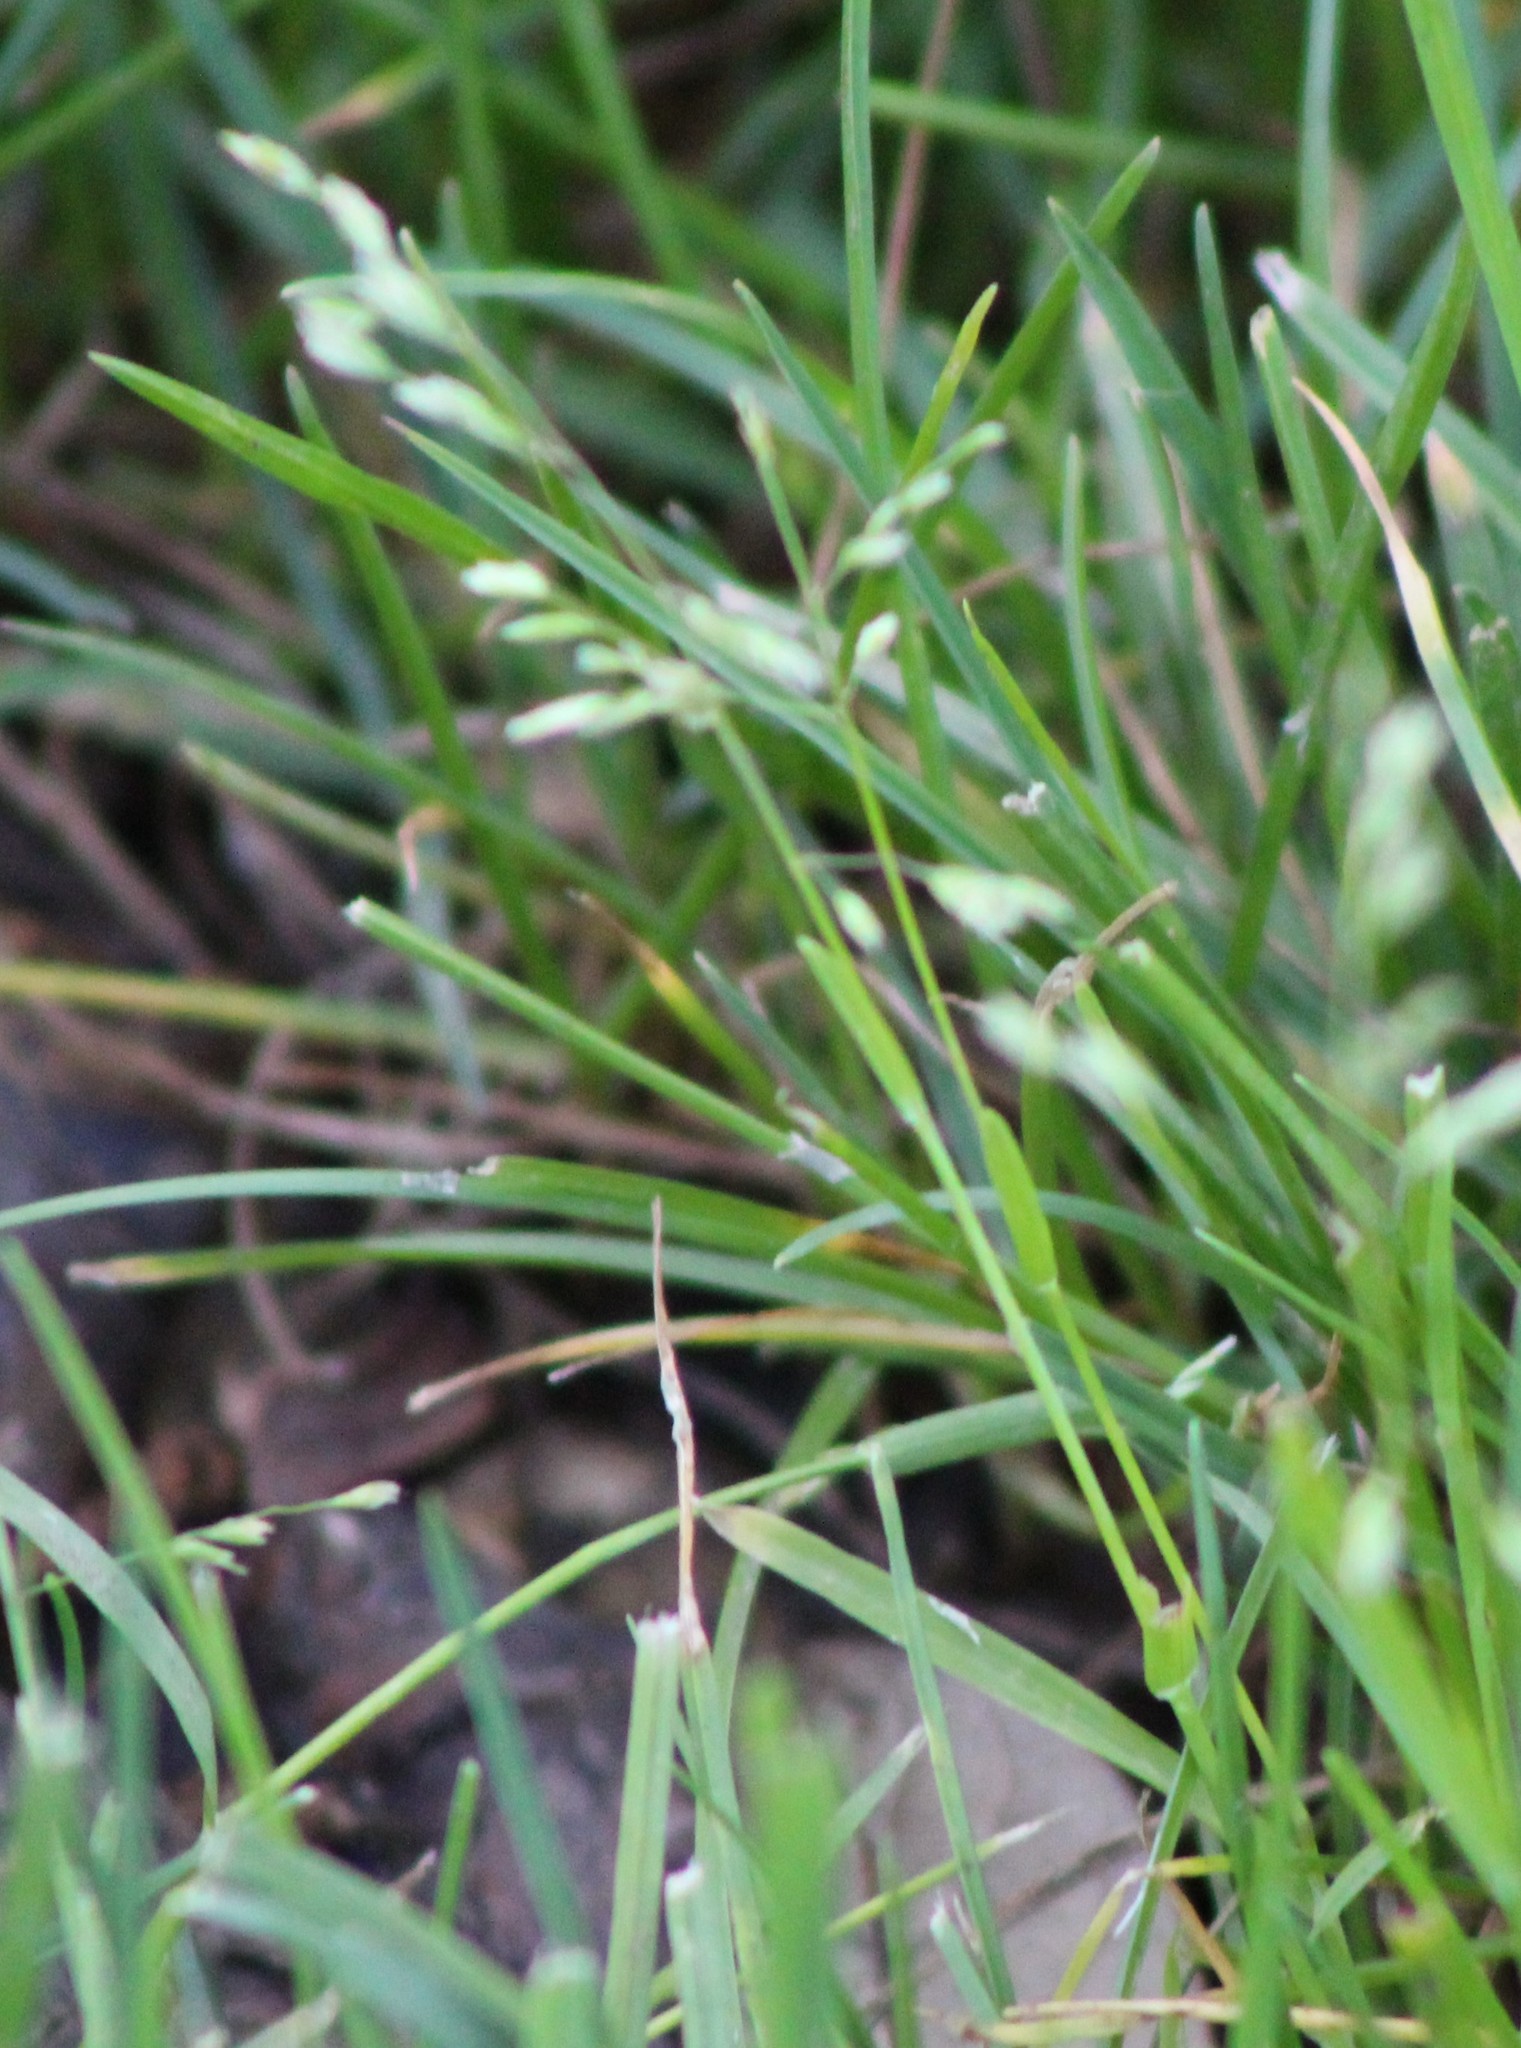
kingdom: Plantae
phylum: Tracheophyta
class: Liliopsida
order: Poales
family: Poaceae
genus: Poa
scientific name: Poa annua
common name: Annual bluegrass
